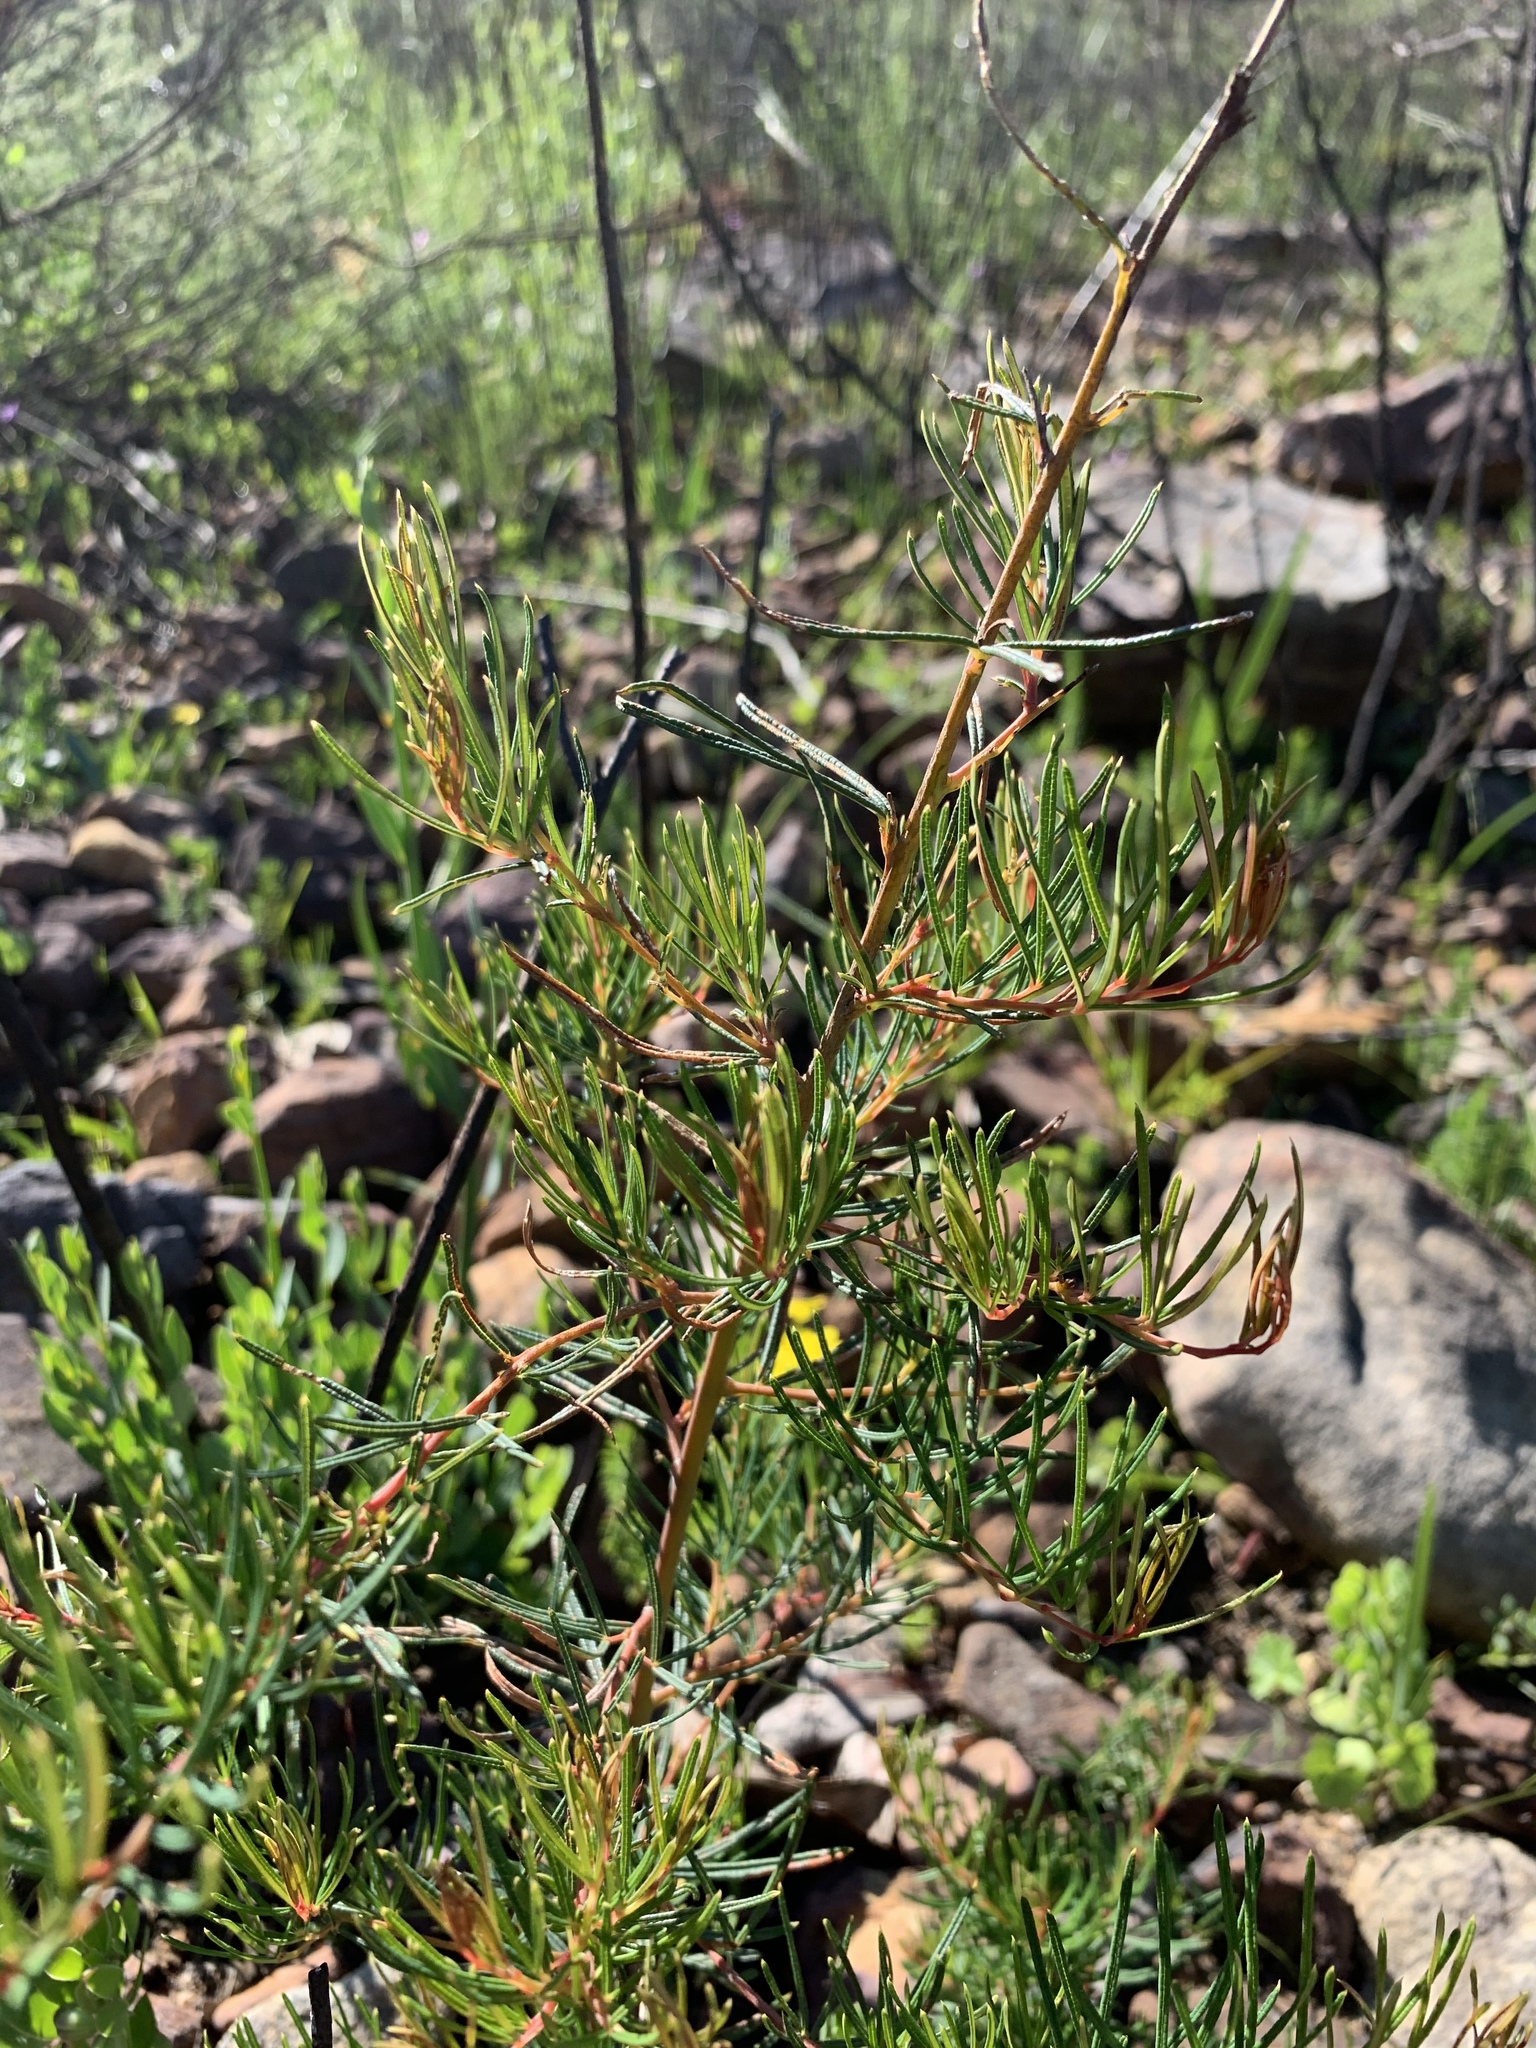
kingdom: Plantae
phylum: Tracheophyta
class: Magnoliopsida
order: Sapindales
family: Anacardiaceae
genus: Searsia
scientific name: Searsia rosmarinifolia
